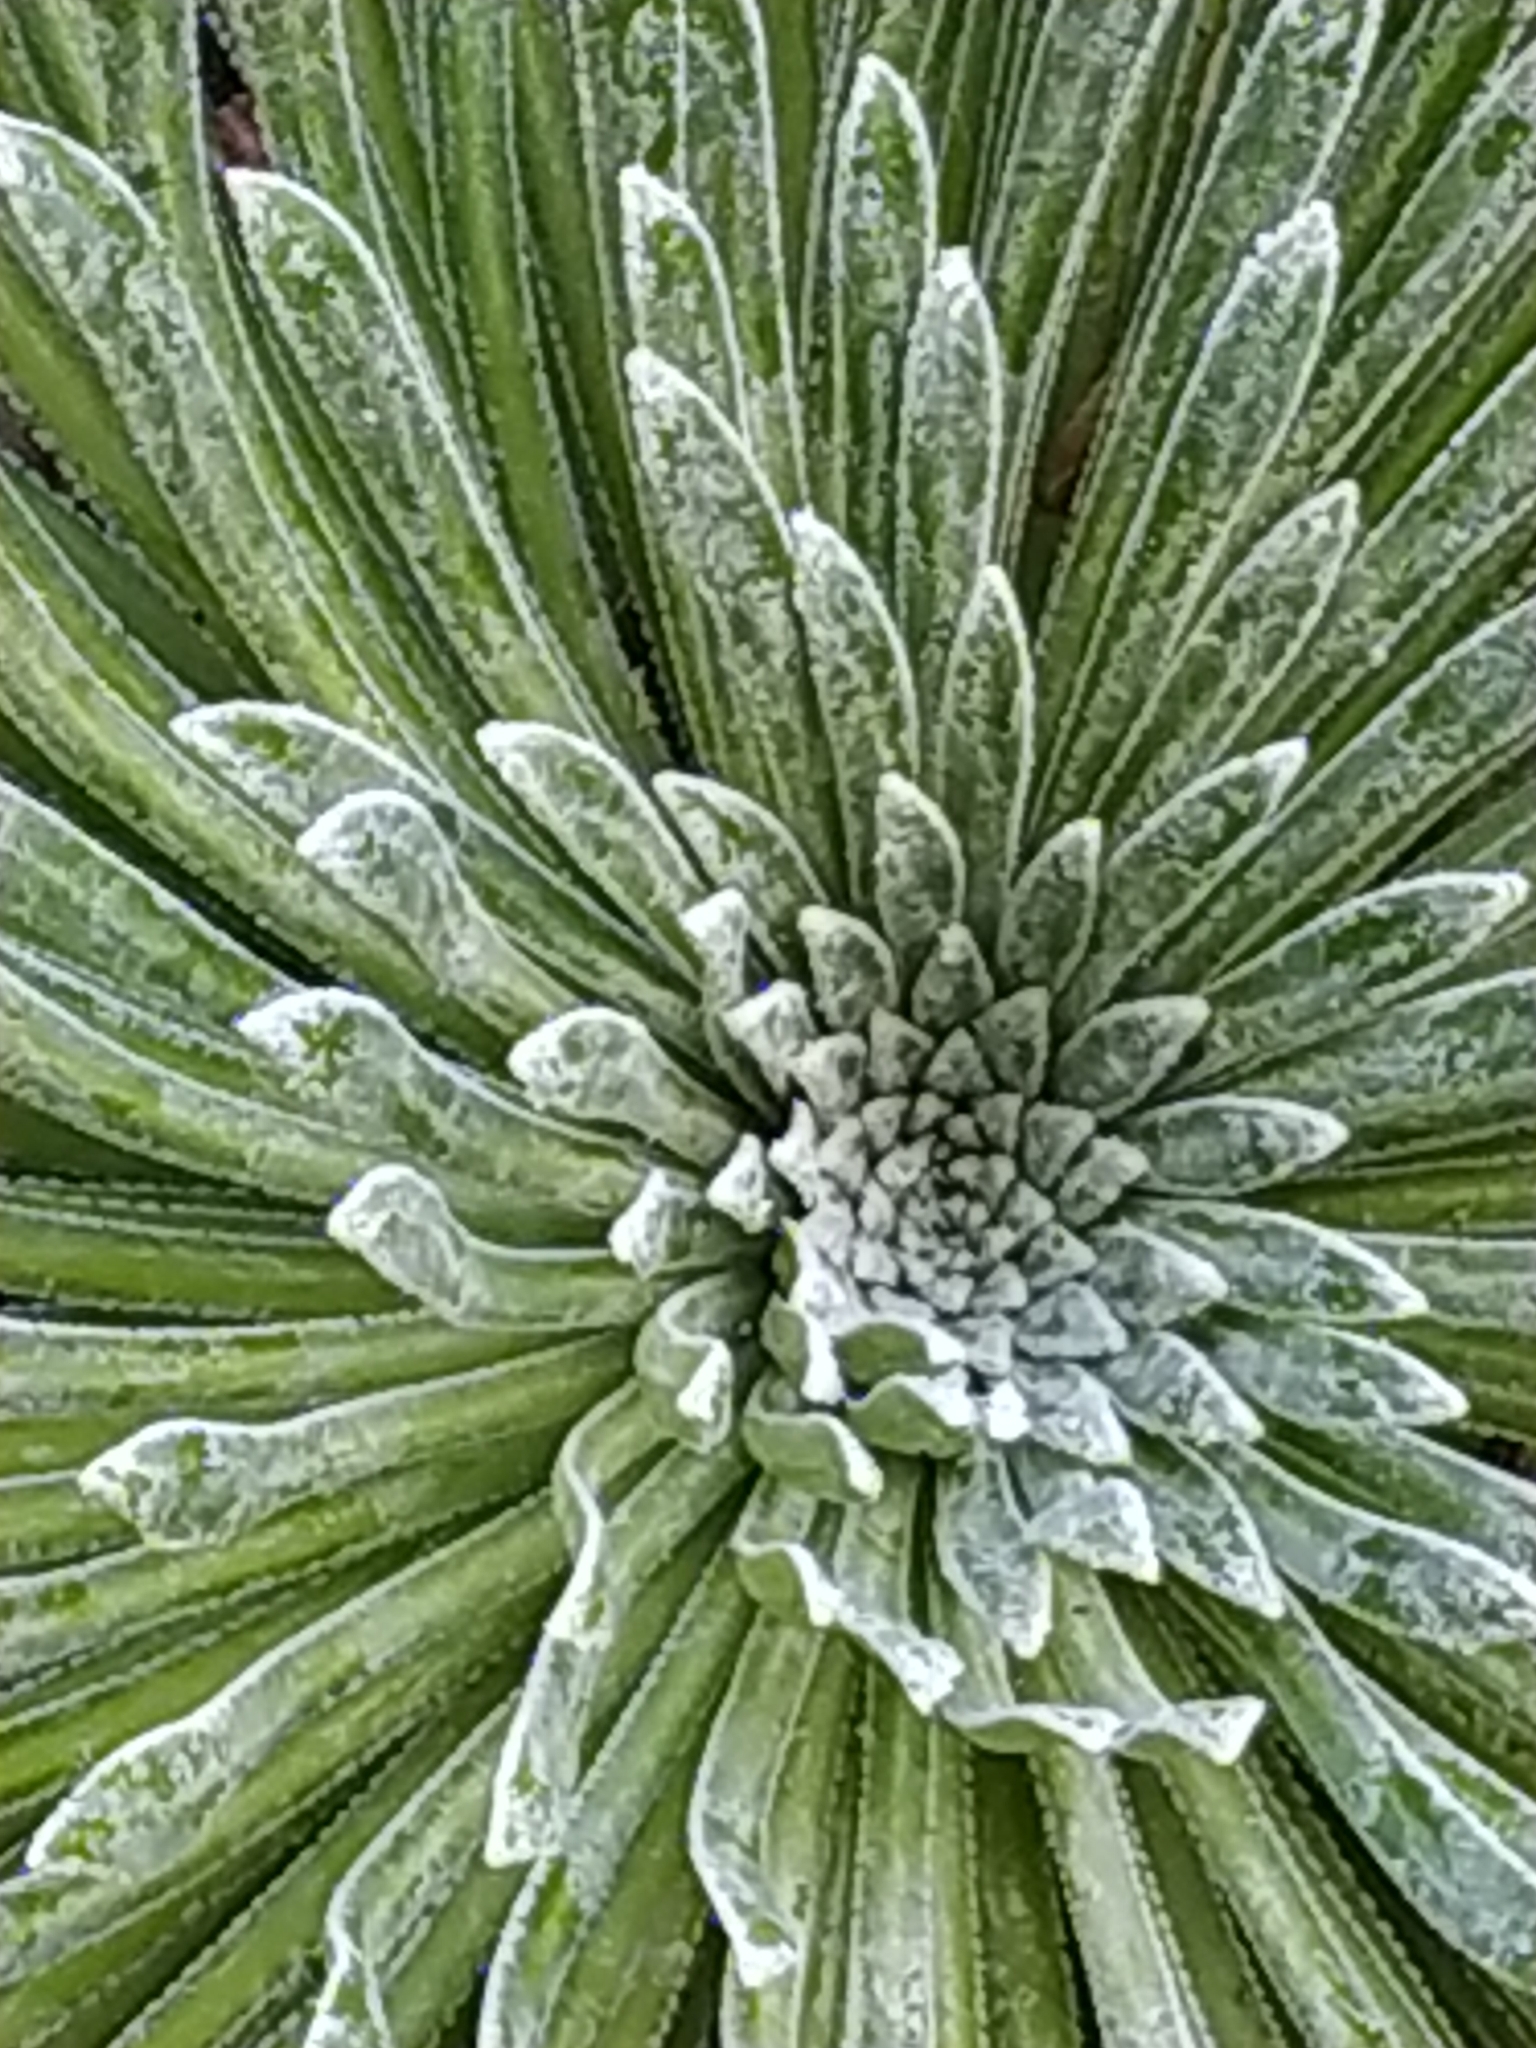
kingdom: Plantae
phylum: Tracheophyta
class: Magnoliopsida
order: Saxifragales
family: Saxifragaceae
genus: Saxifraga
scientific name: Saxifraga longifolia
